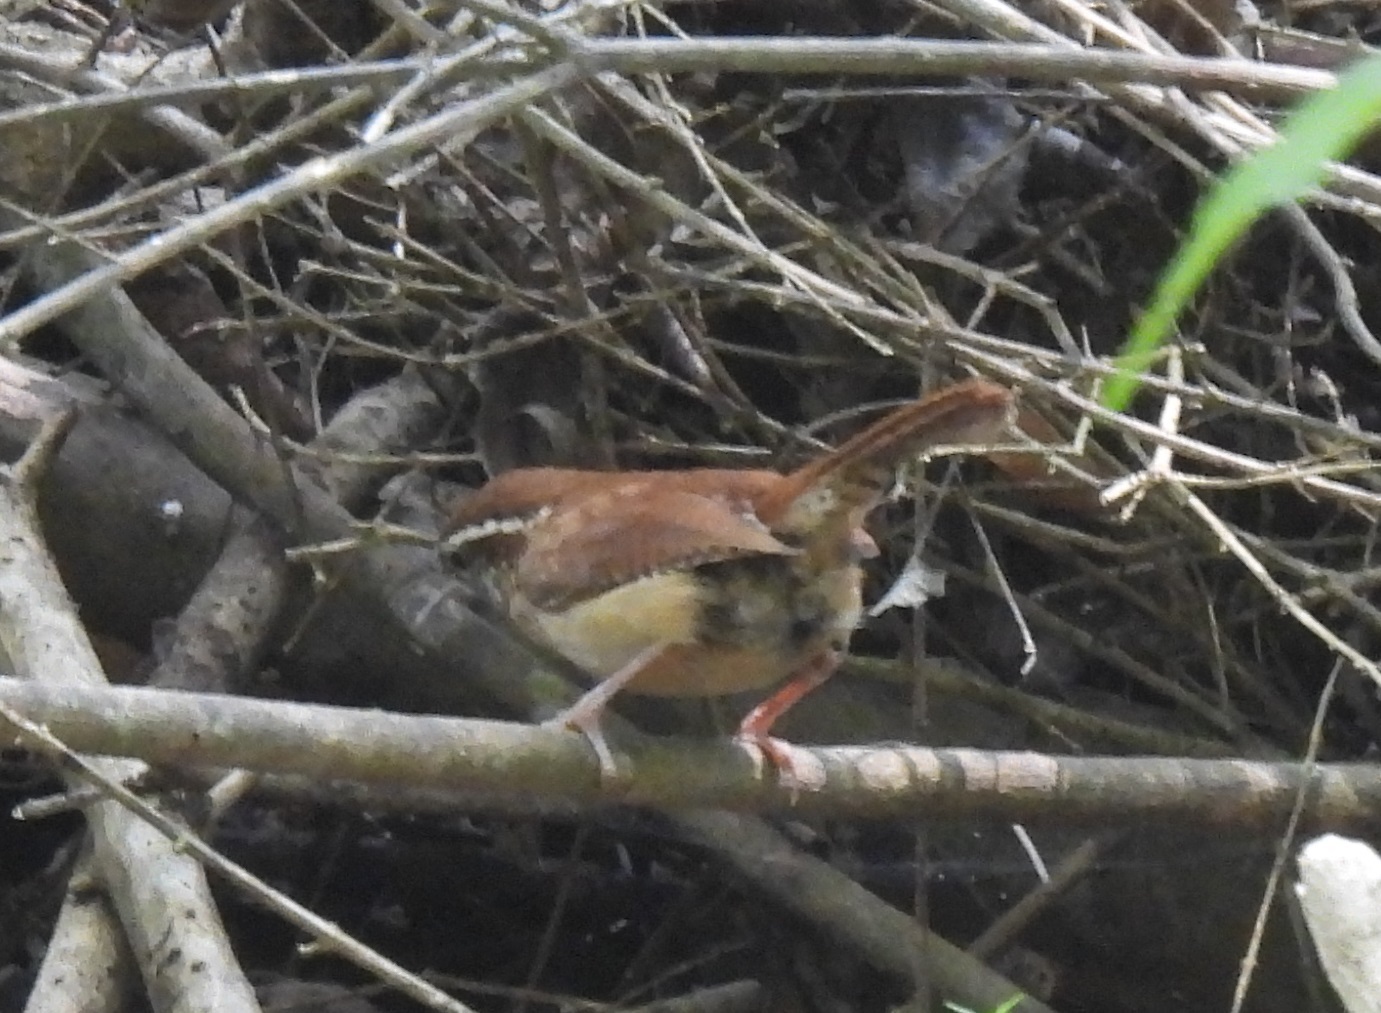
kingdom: Animalia
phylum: Chordata
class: Aves
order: Passeriformes
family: Troglodytidae
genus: Thryothorus
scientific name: Thryothorus ludovicianus
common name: Carolina wren
